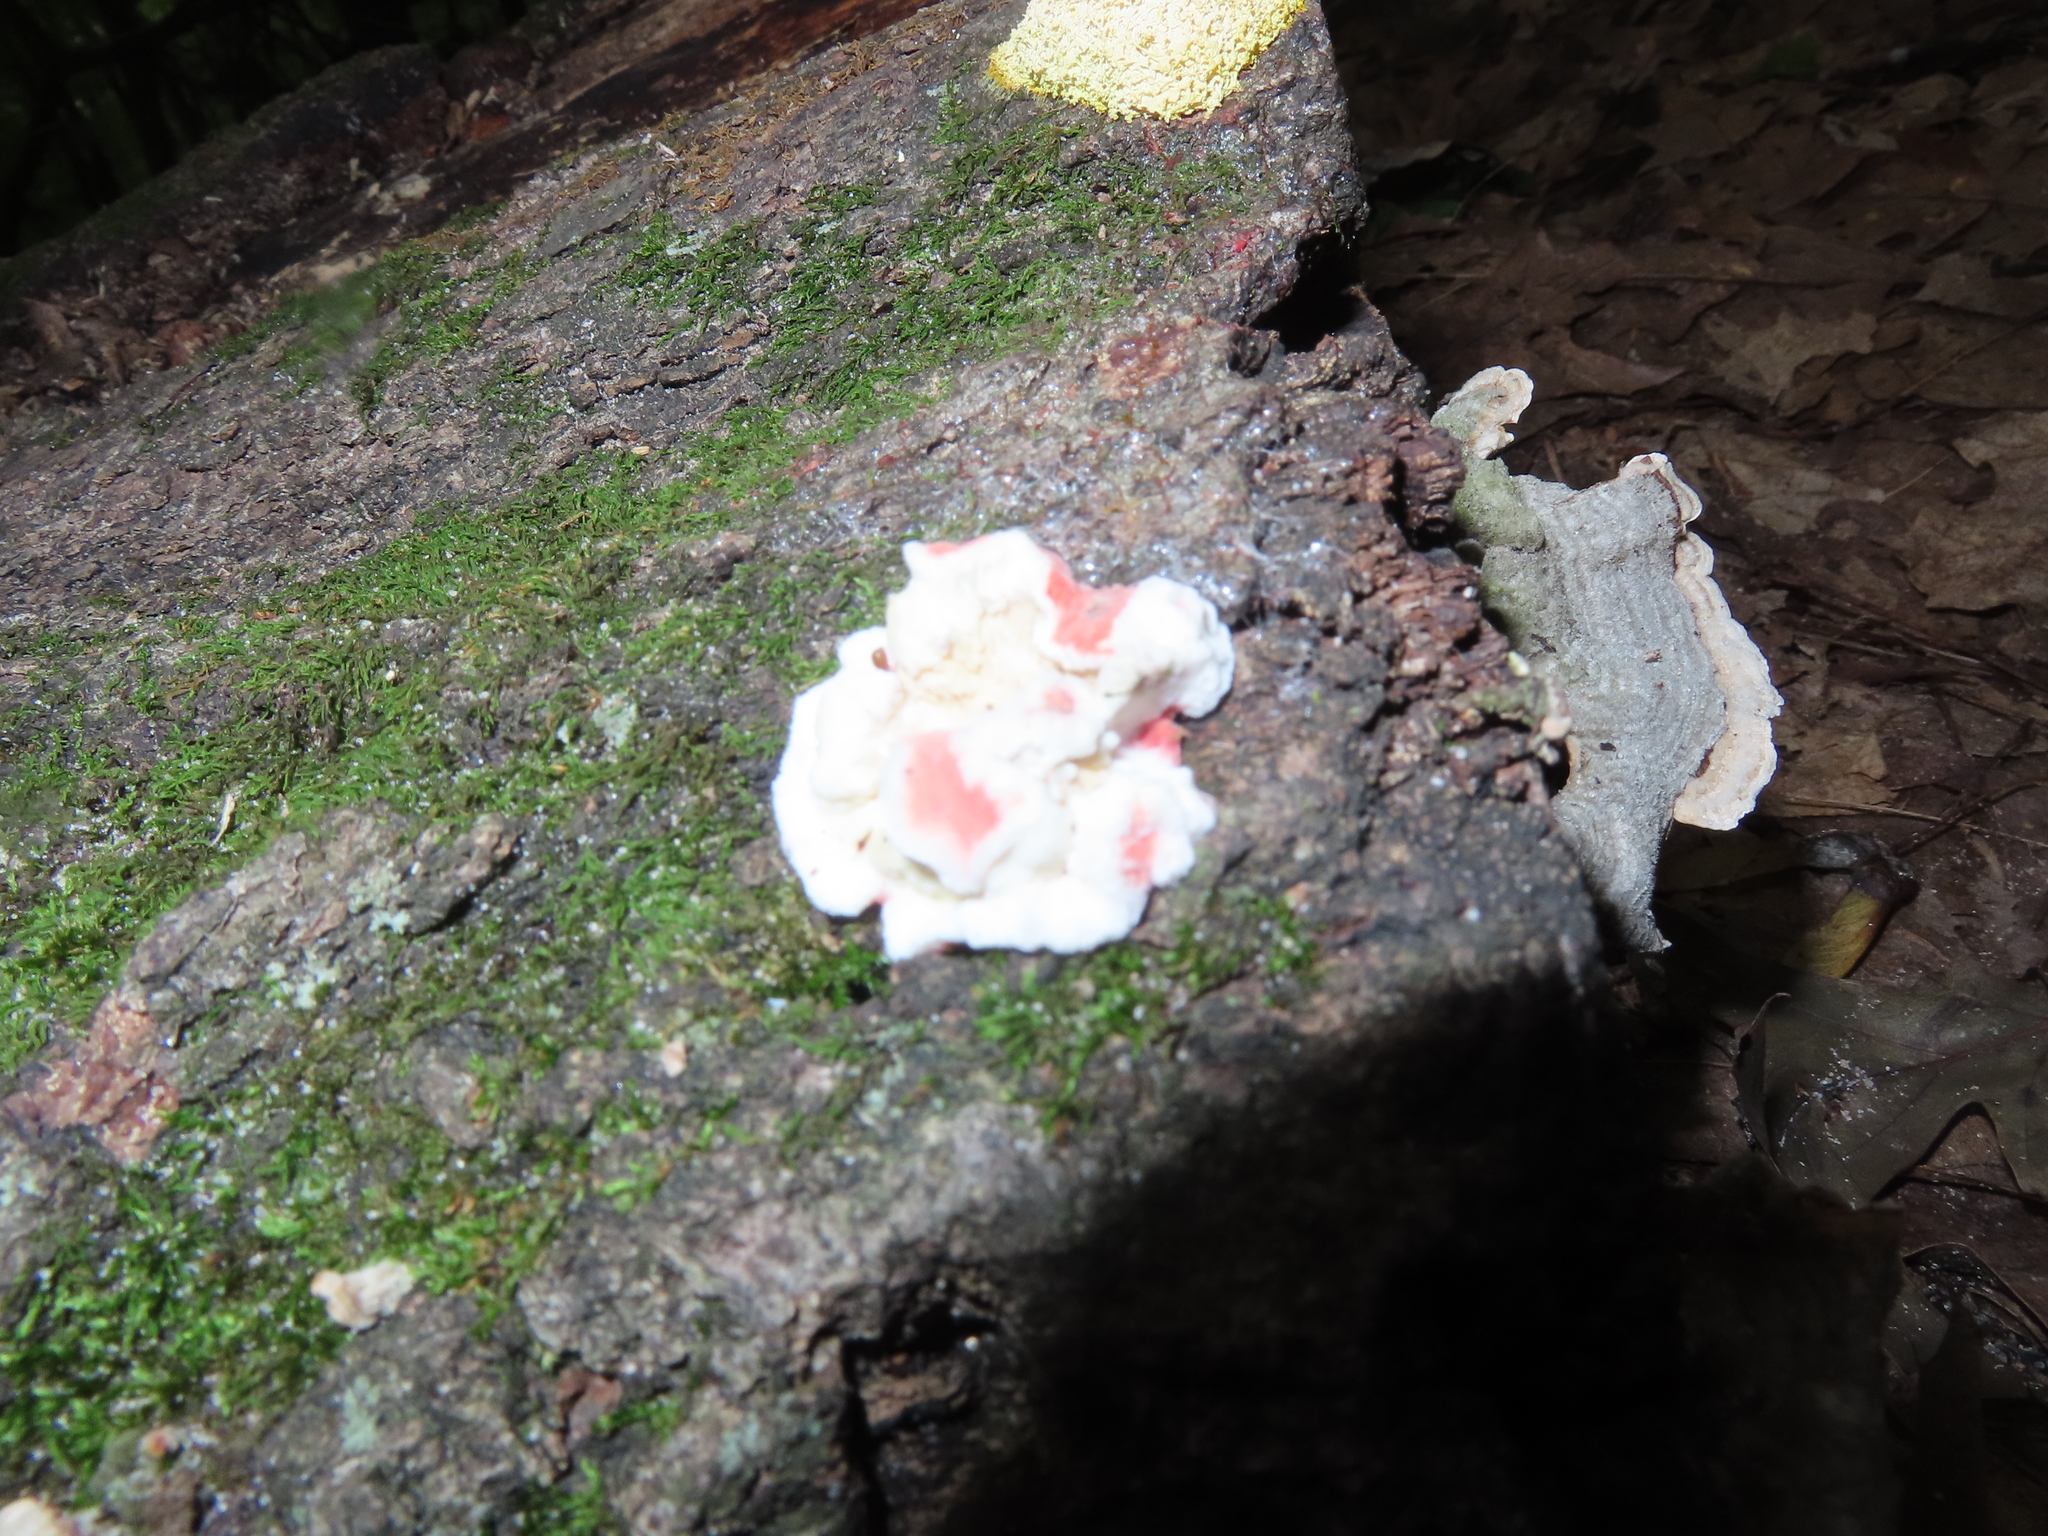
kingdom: Fungi
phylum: Basidiomycota
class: Agaricomycetes
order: Polyporales
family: Irpicaceae
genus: Byssomerulius
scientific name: Byssomerulius incarnatus
